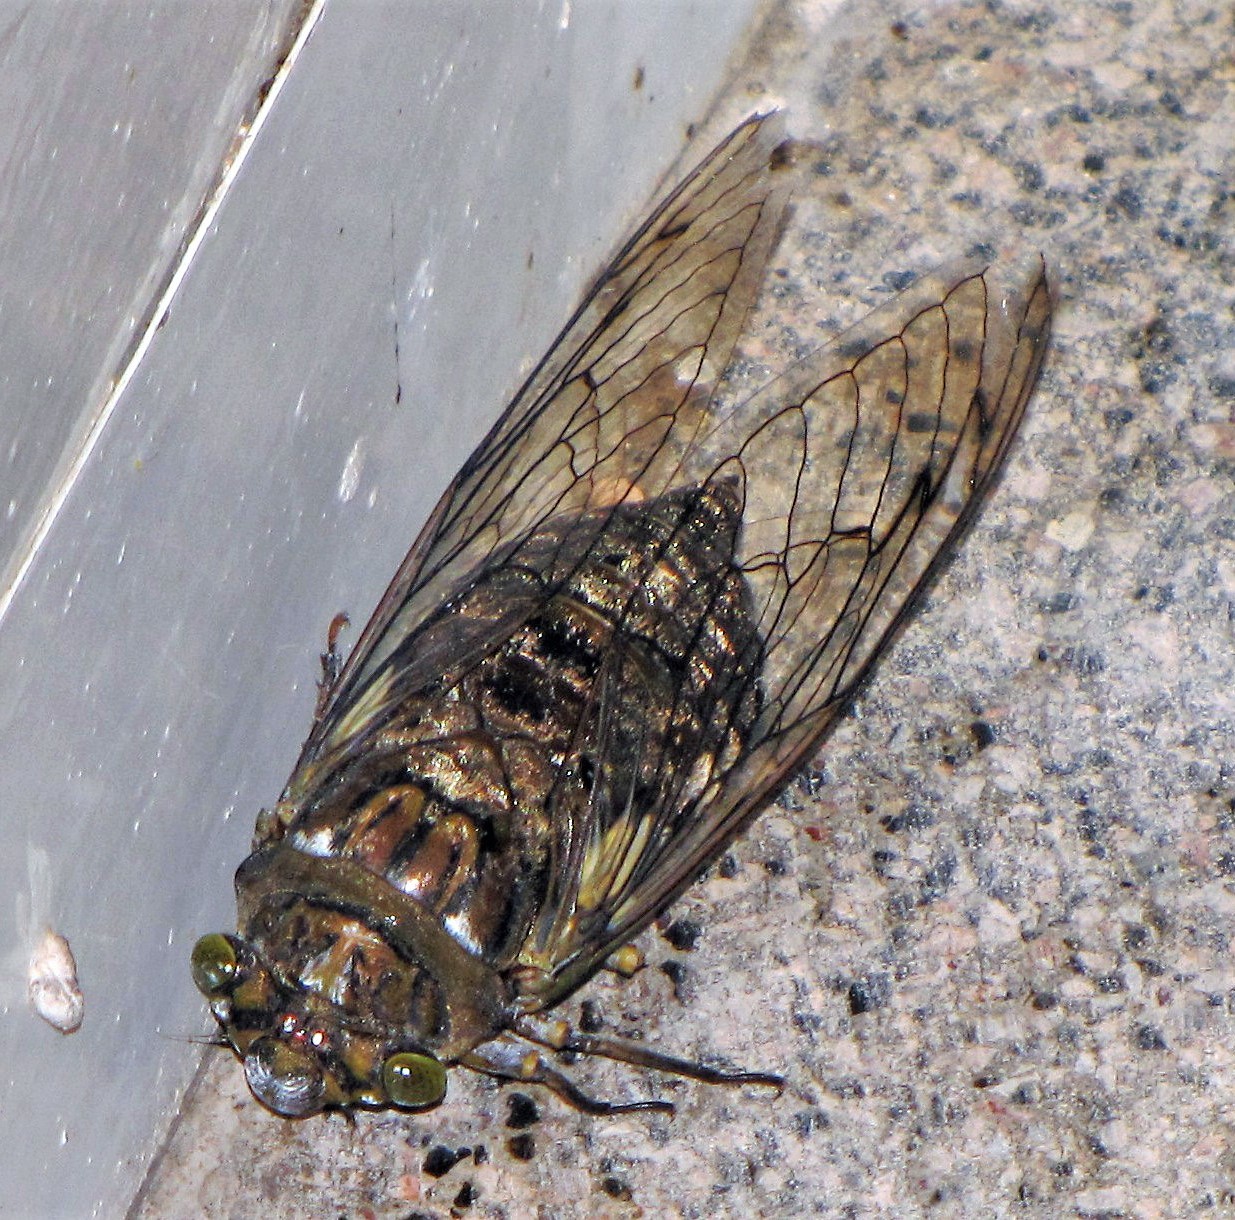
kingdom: Animalia
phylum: Arthropoda
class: Insecta
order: Hemiptera
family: Cicadidae
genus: Quesada
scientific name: Quesada gigas
